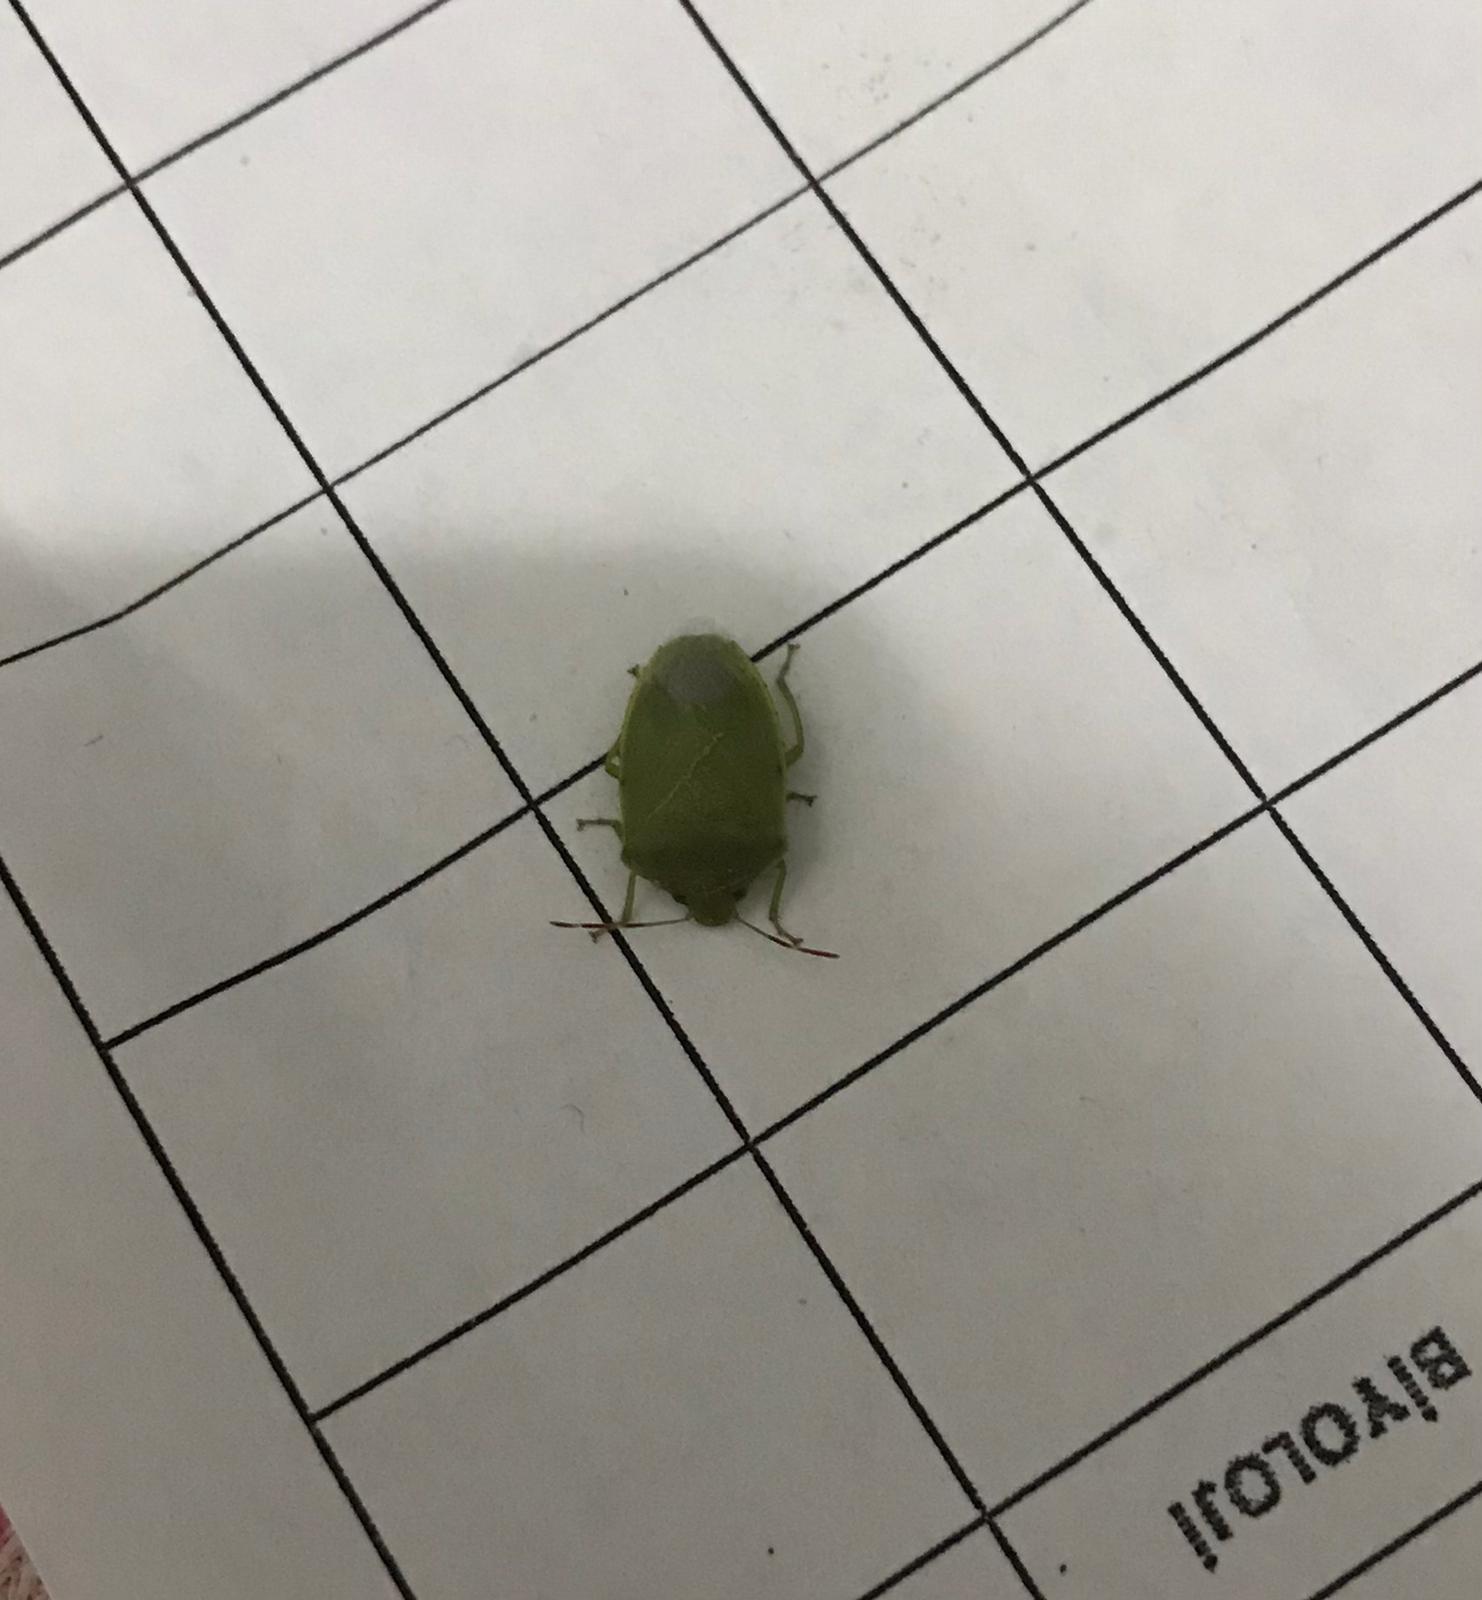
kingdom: Animalia
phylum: Arthropoda
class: Insecta
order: Hemiptera
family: Pentatomidae
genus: Acrosternum
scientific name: Acrosternum heegeri
